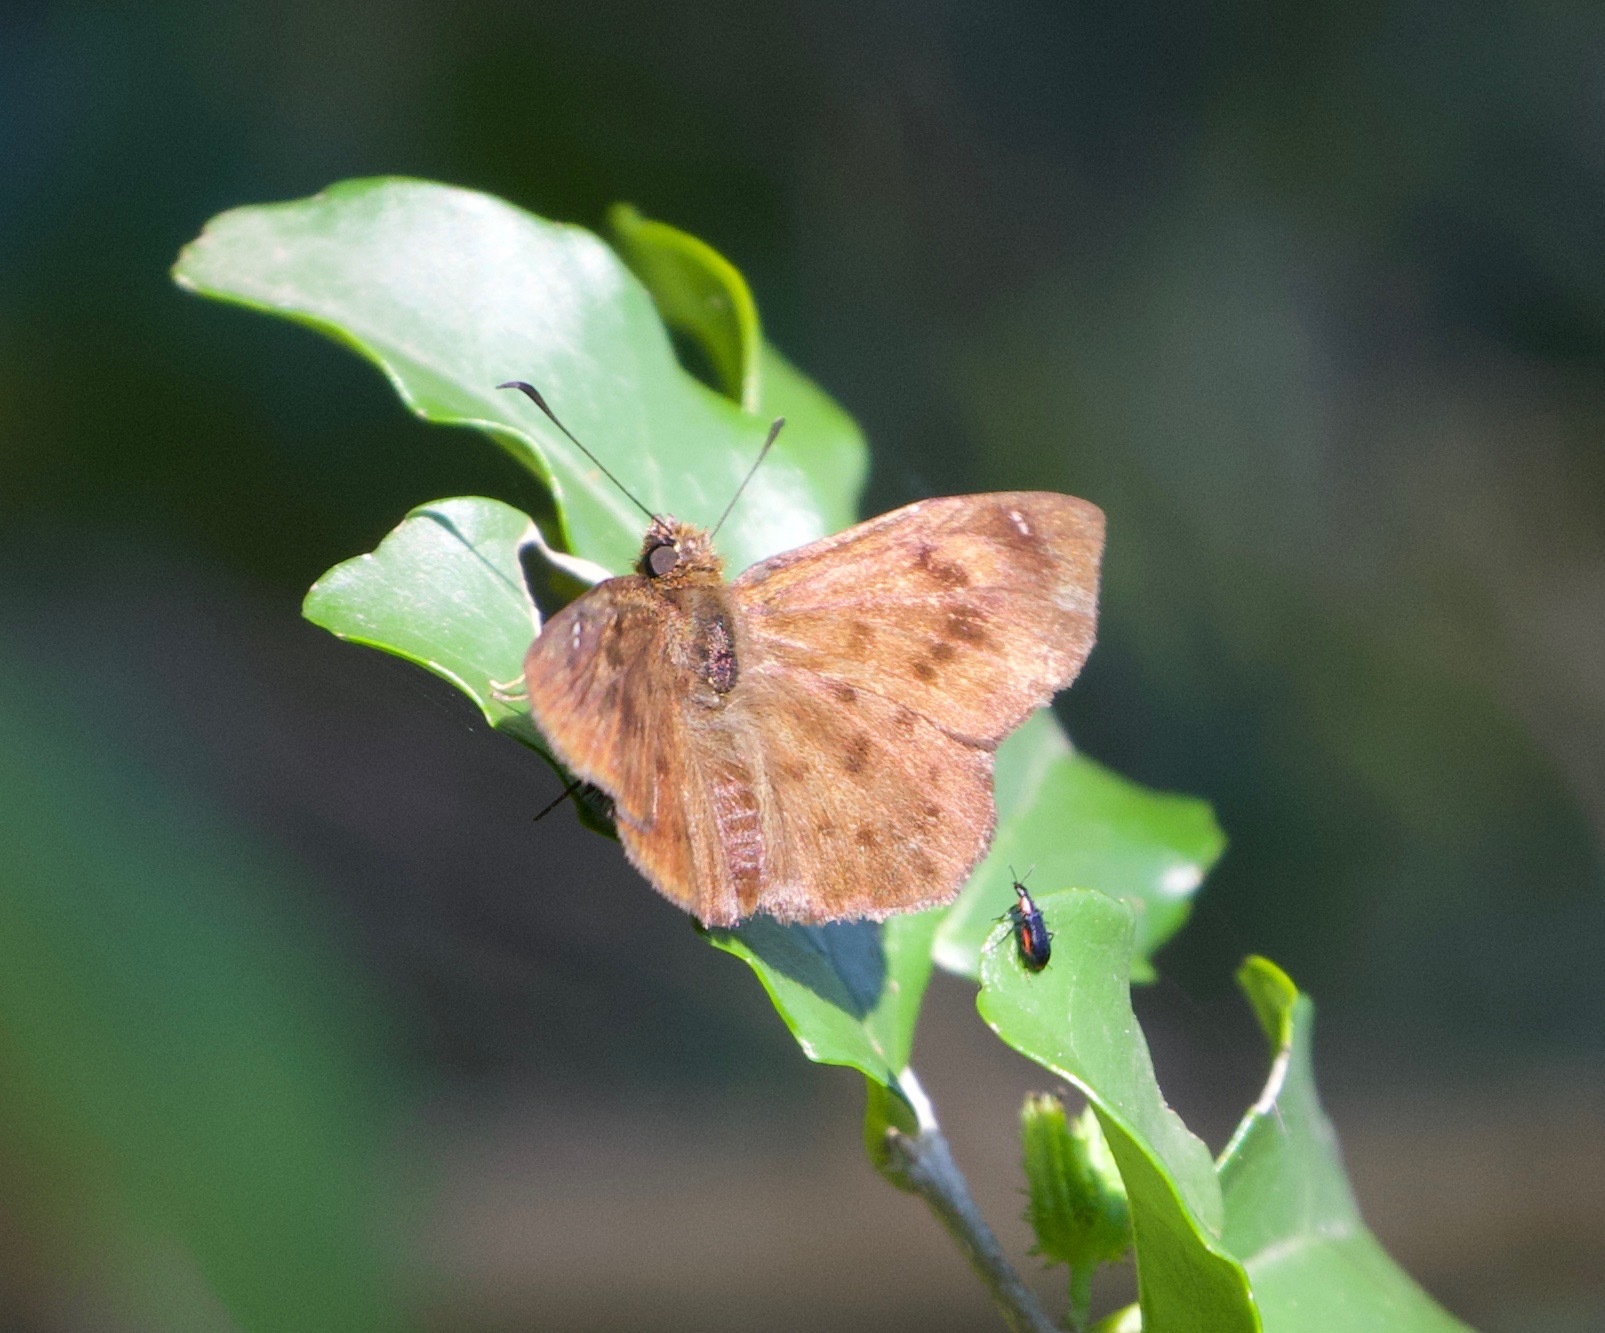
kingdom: Animalia
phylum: Arthropoda
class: Insecta
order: Lepidoptera
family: Hesperiidae
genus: Eagris
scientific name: Eagris nottoana
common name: Rufous-winged flat
